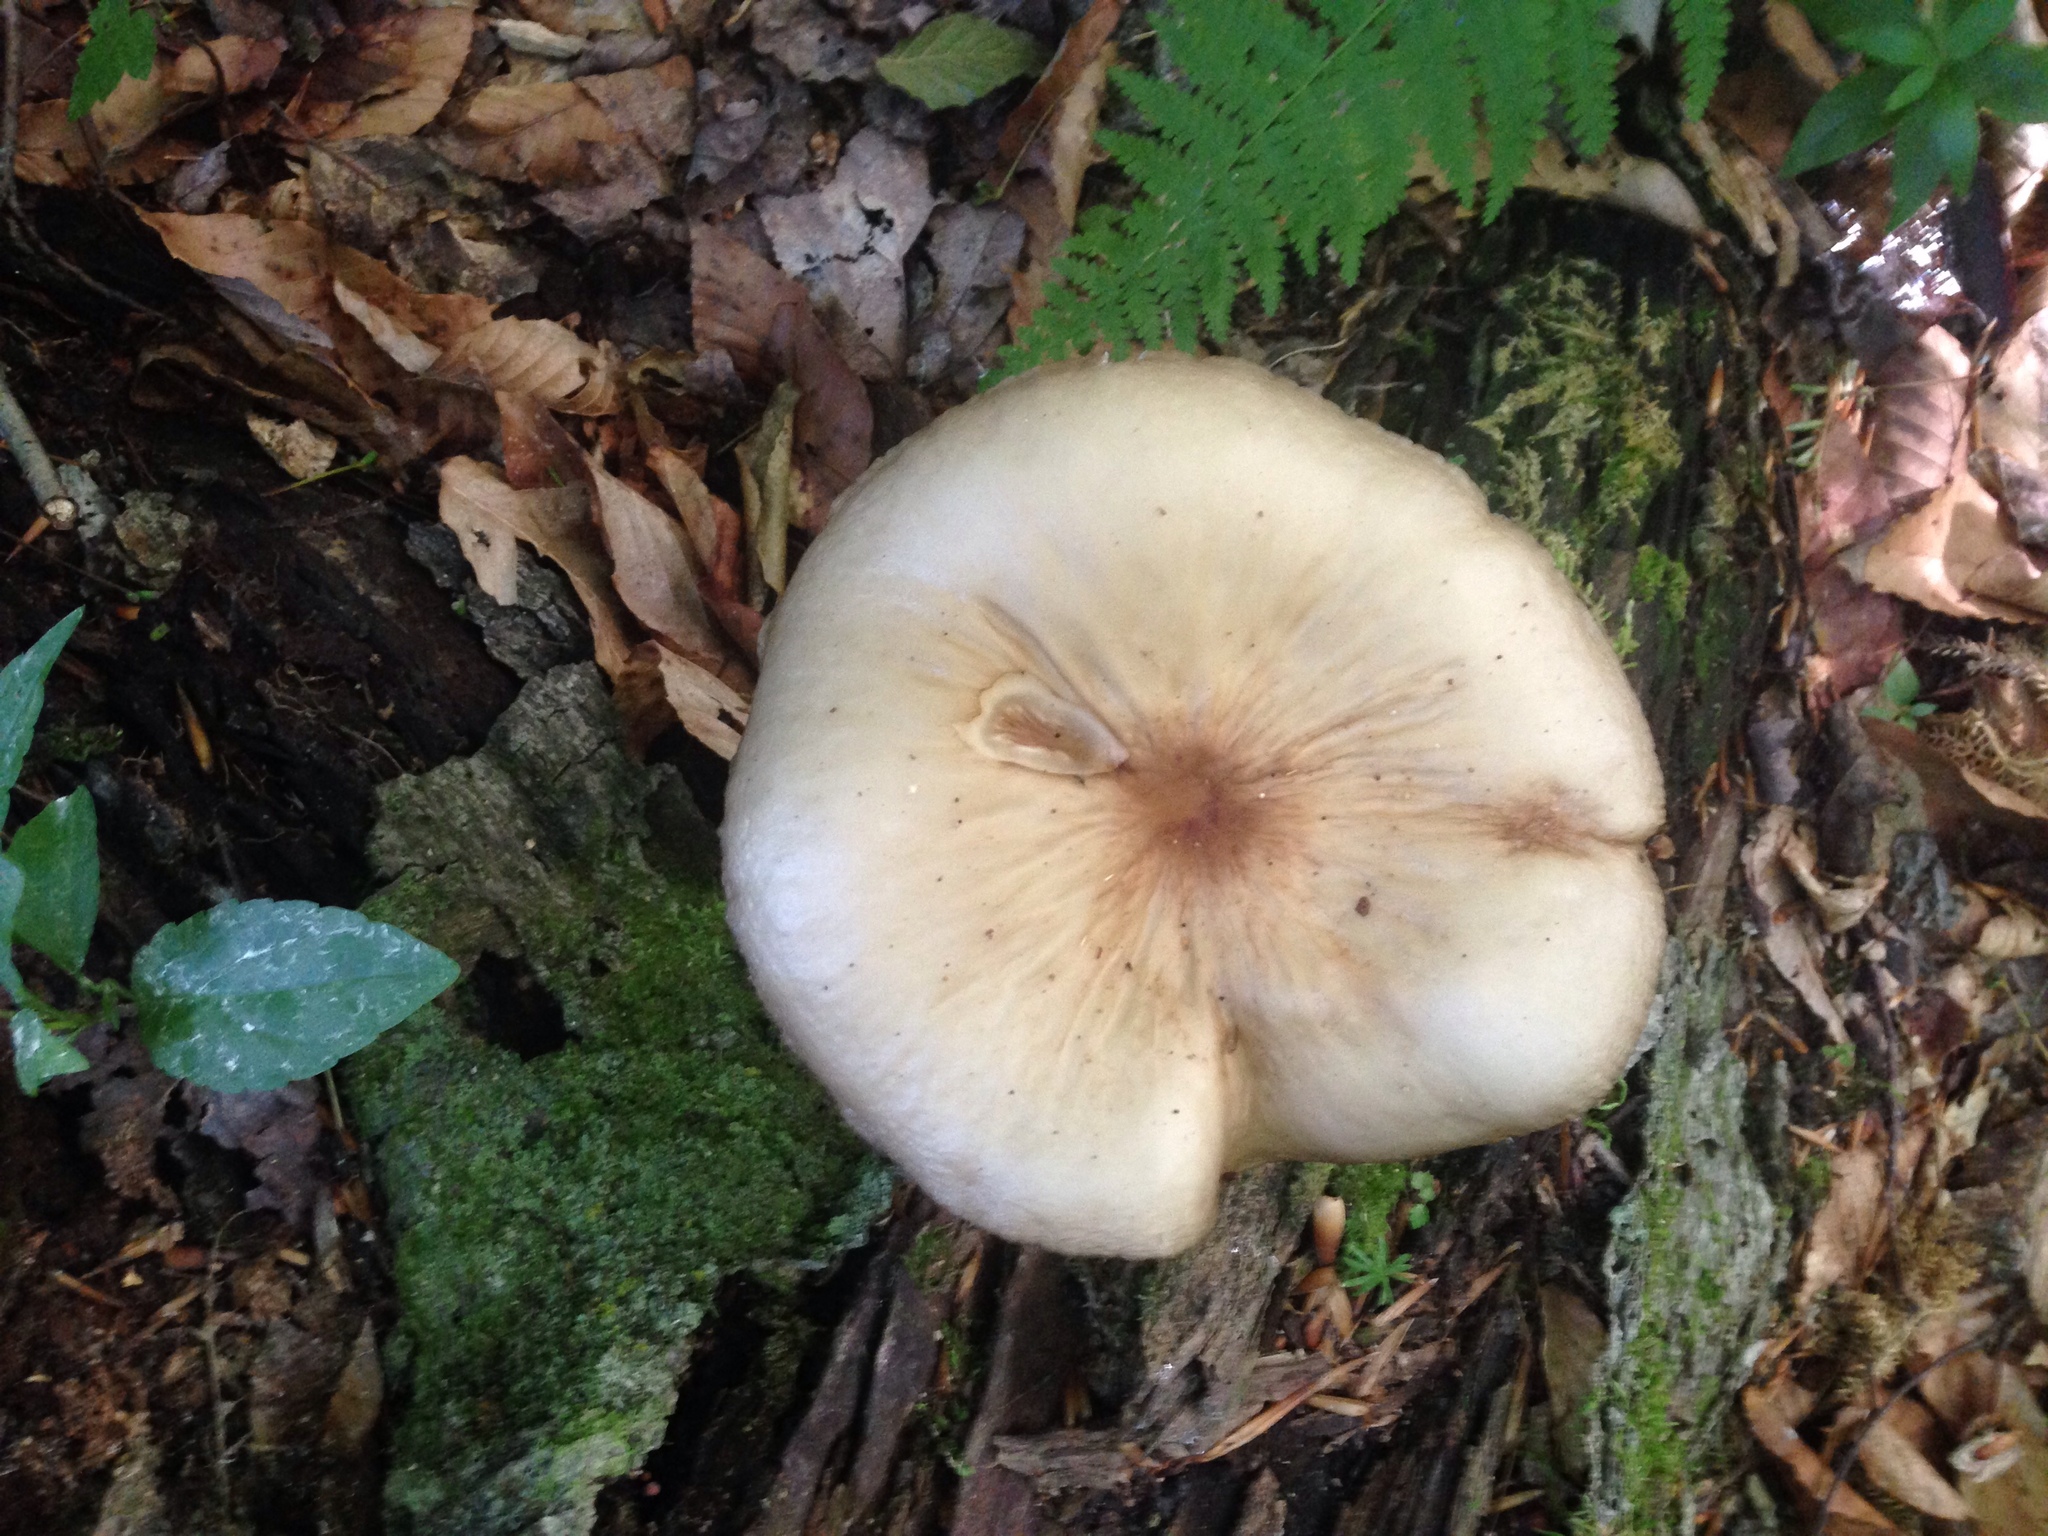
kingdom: Fungi
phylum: Basidiomycota
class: Agaricomycetes
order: Agaricales
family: Tricholomataceae
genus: Megacollybia
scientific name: Megacollybia rodmanii
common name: Eastern american platterful mushroom
